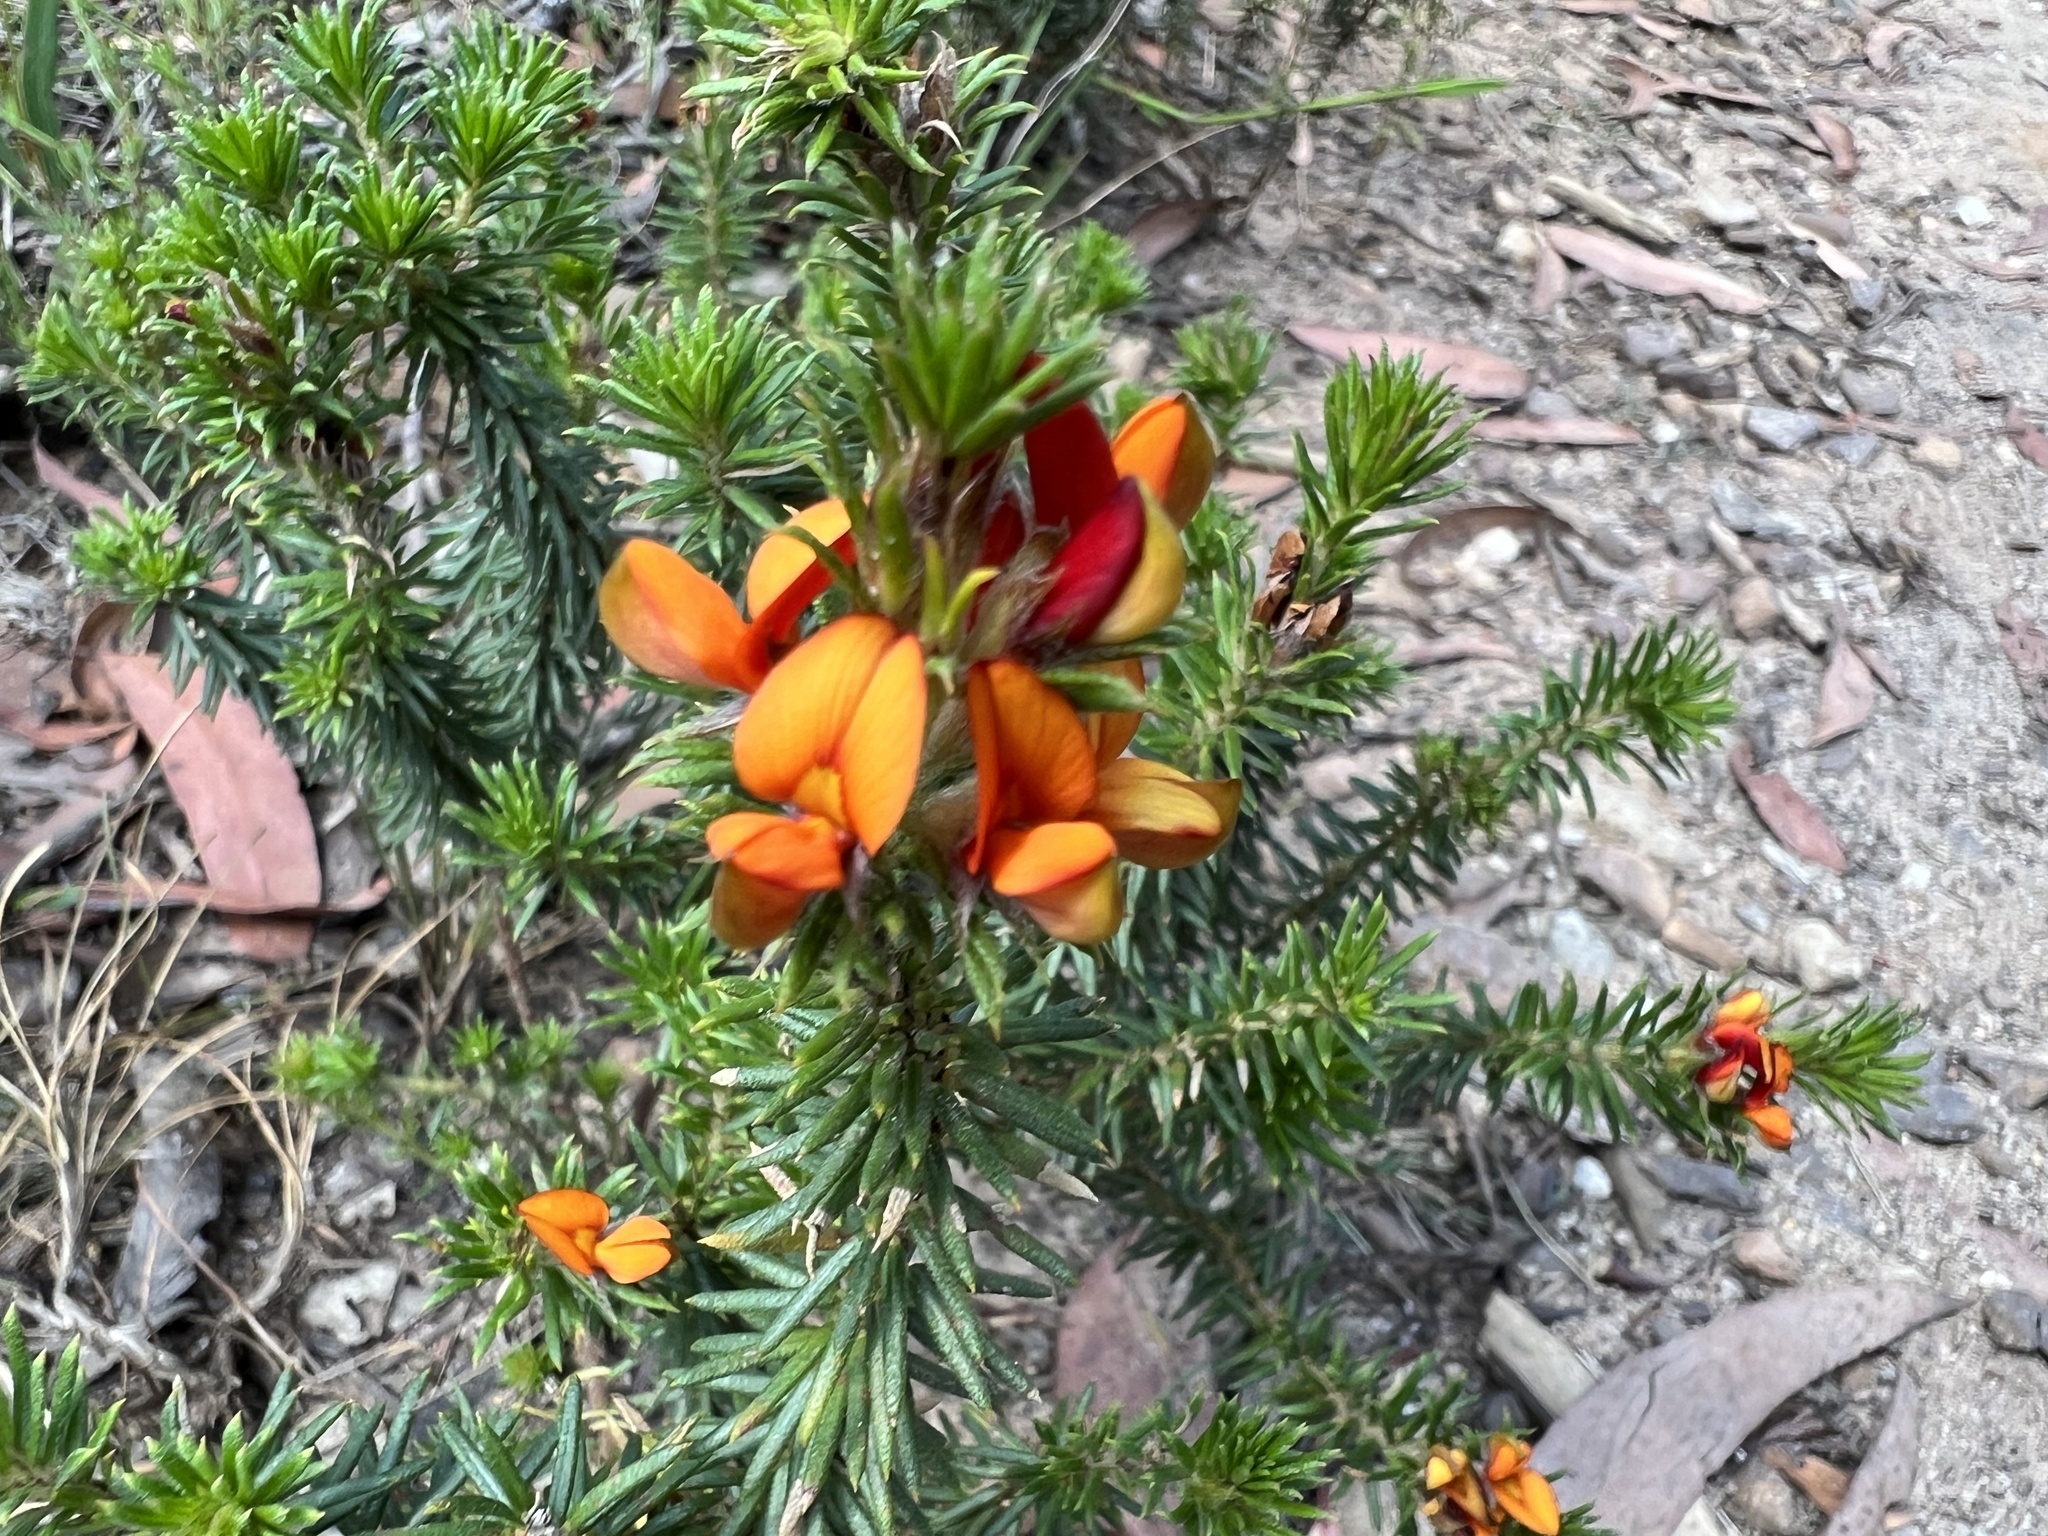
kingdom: Plantae
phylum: Tracheophyta
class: Magnoliopsida
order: Fabales
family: Fabaceae
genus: Phyllota
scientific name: Phyllota squarrosa
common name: Dense phyllota
